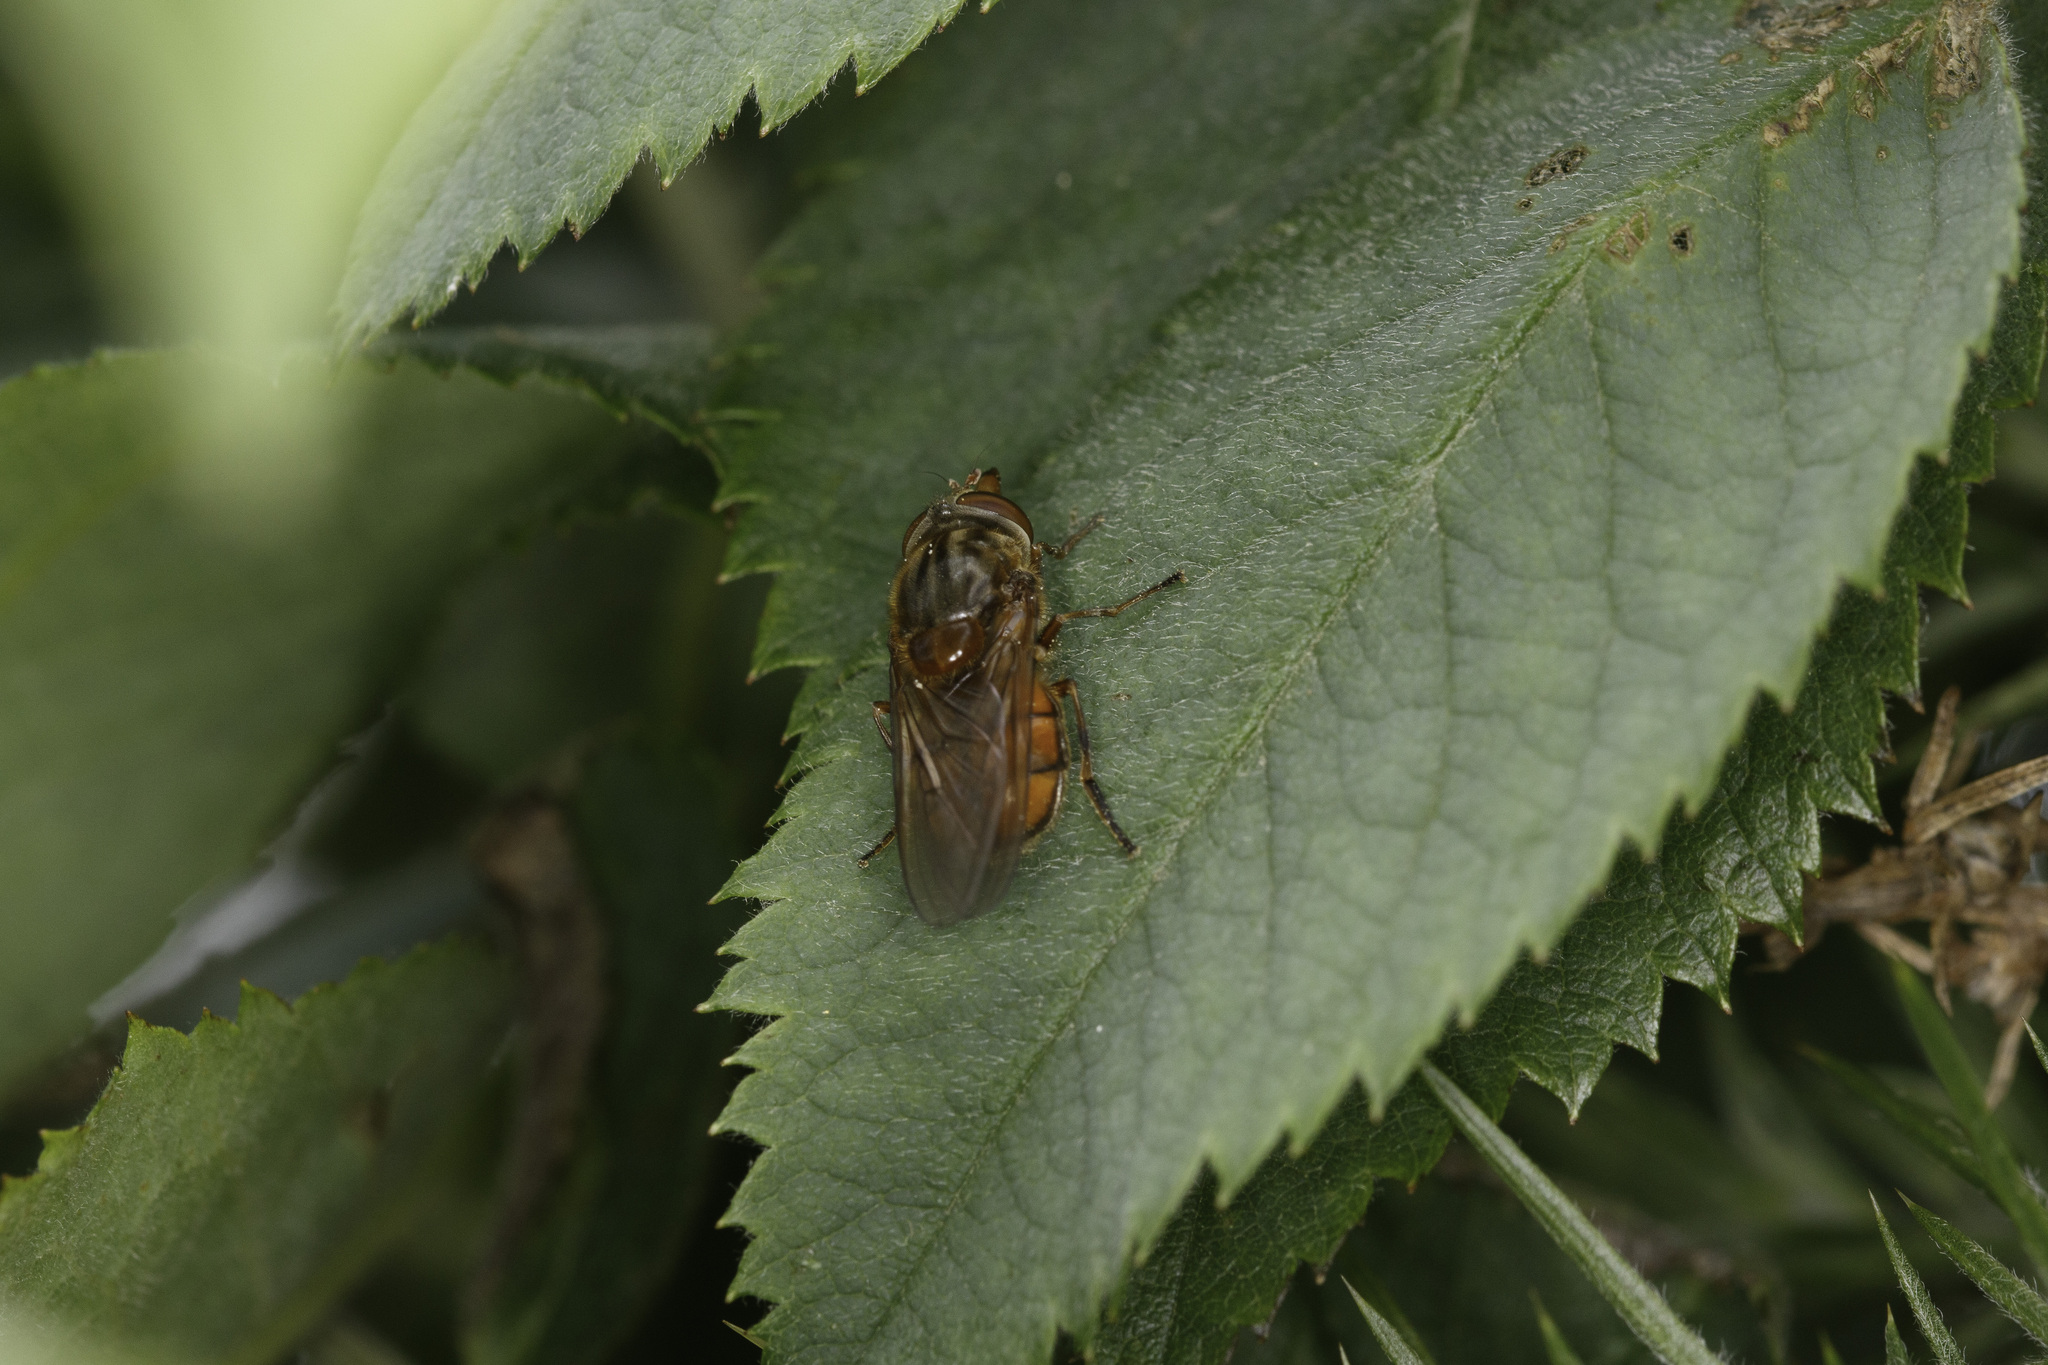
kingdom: Animalia
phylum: Arthropoda
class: Insecta
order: Diptera
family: Syrphidae
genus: Rhingia
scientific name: Rhingia campestris
